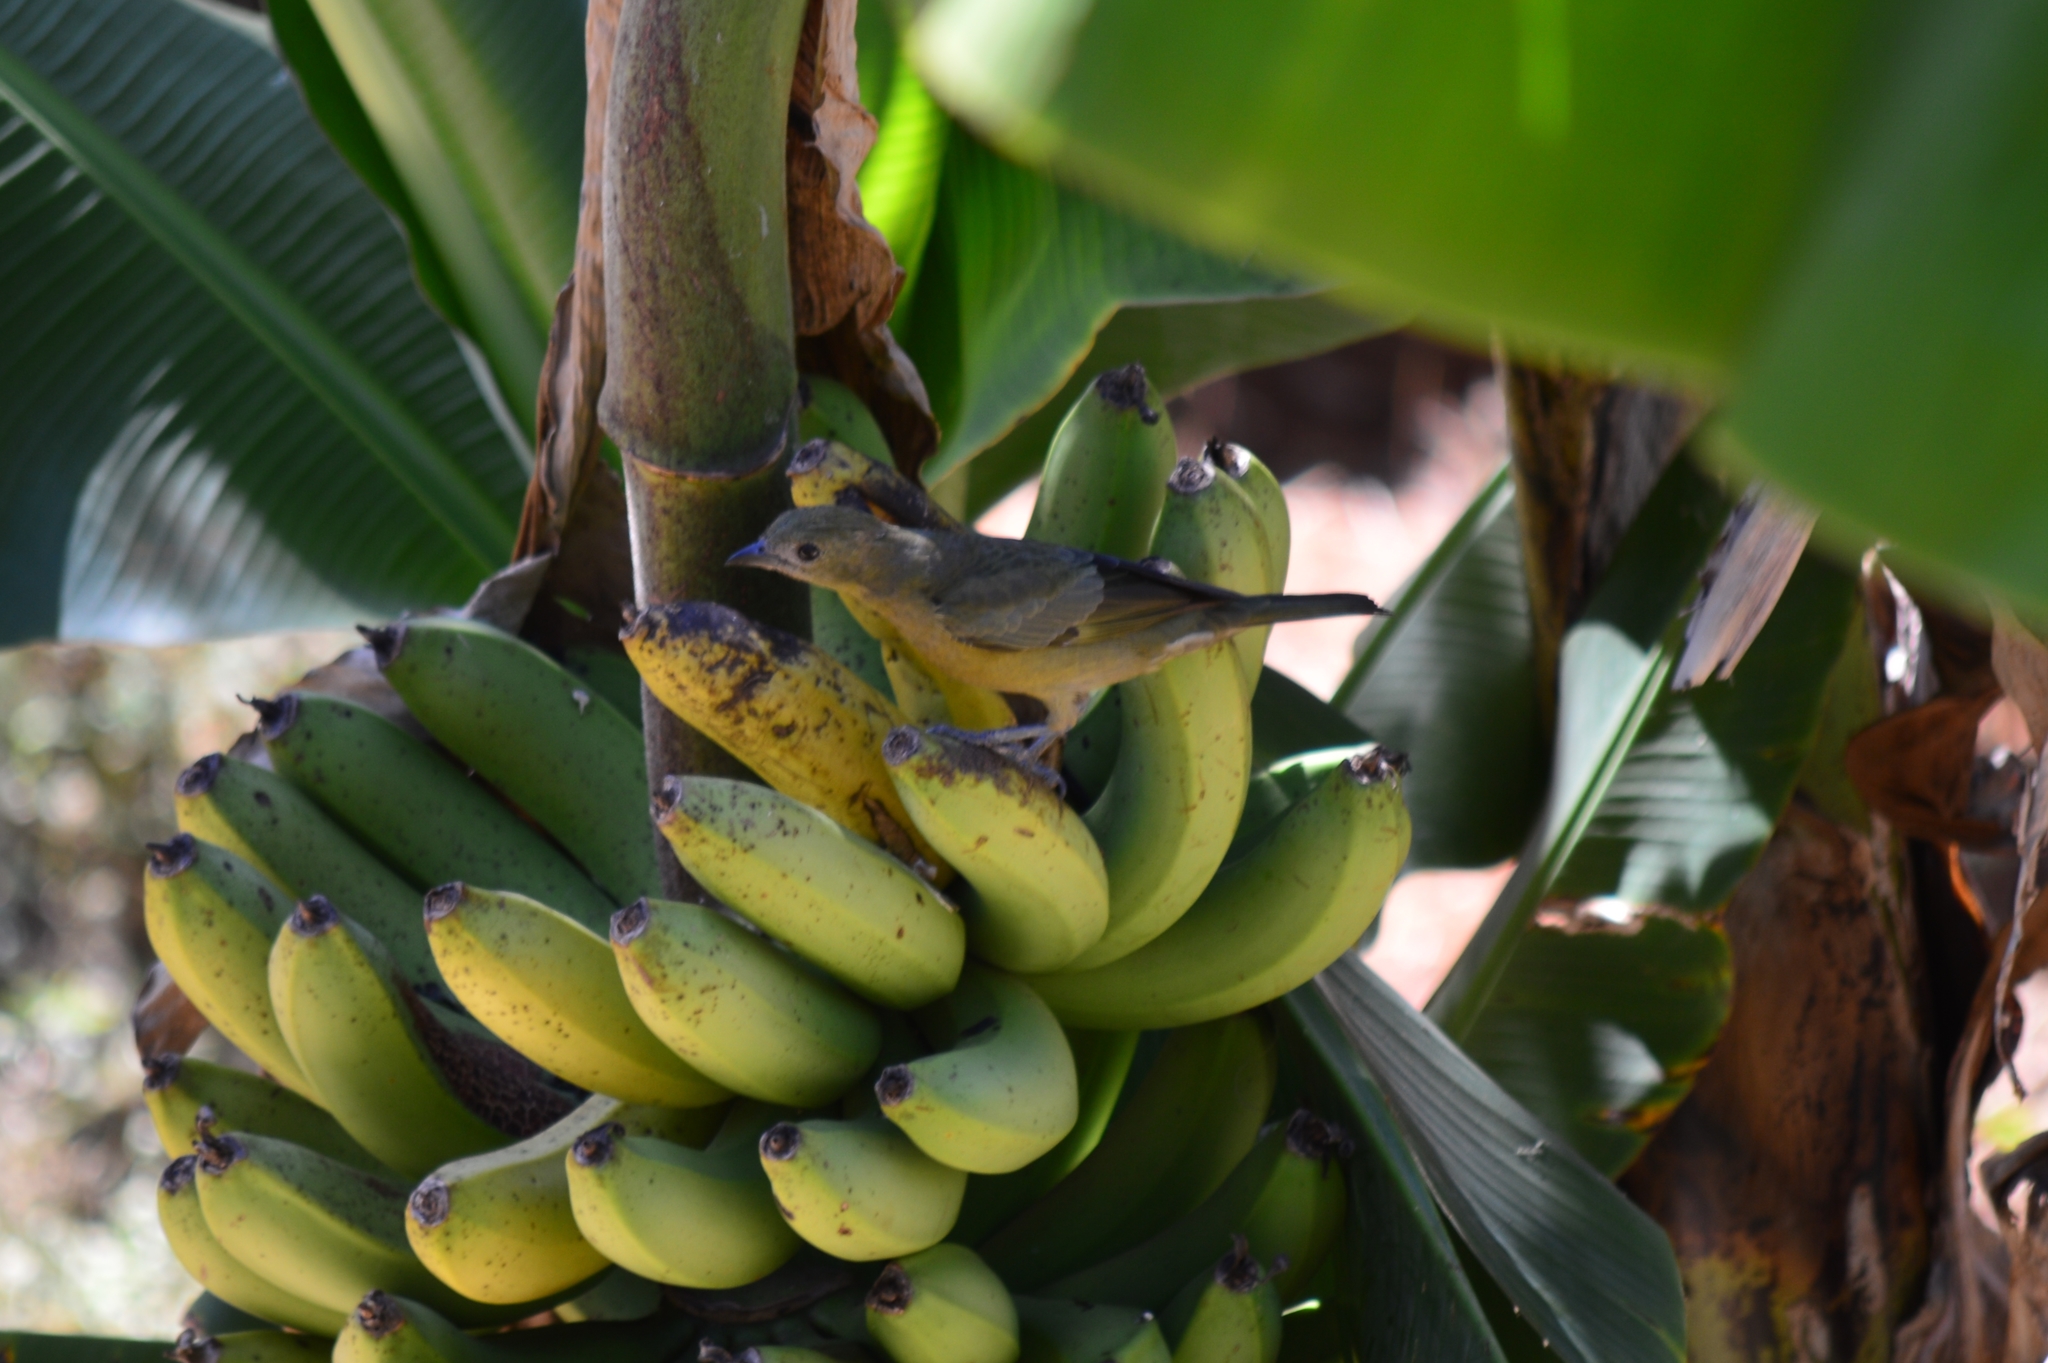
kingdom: Animalia
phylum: Chordata
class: Aves
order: Passeriformes
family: Thraupidae
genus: Thraupis
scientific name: Thraupis palmarum
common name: Palm tanager
